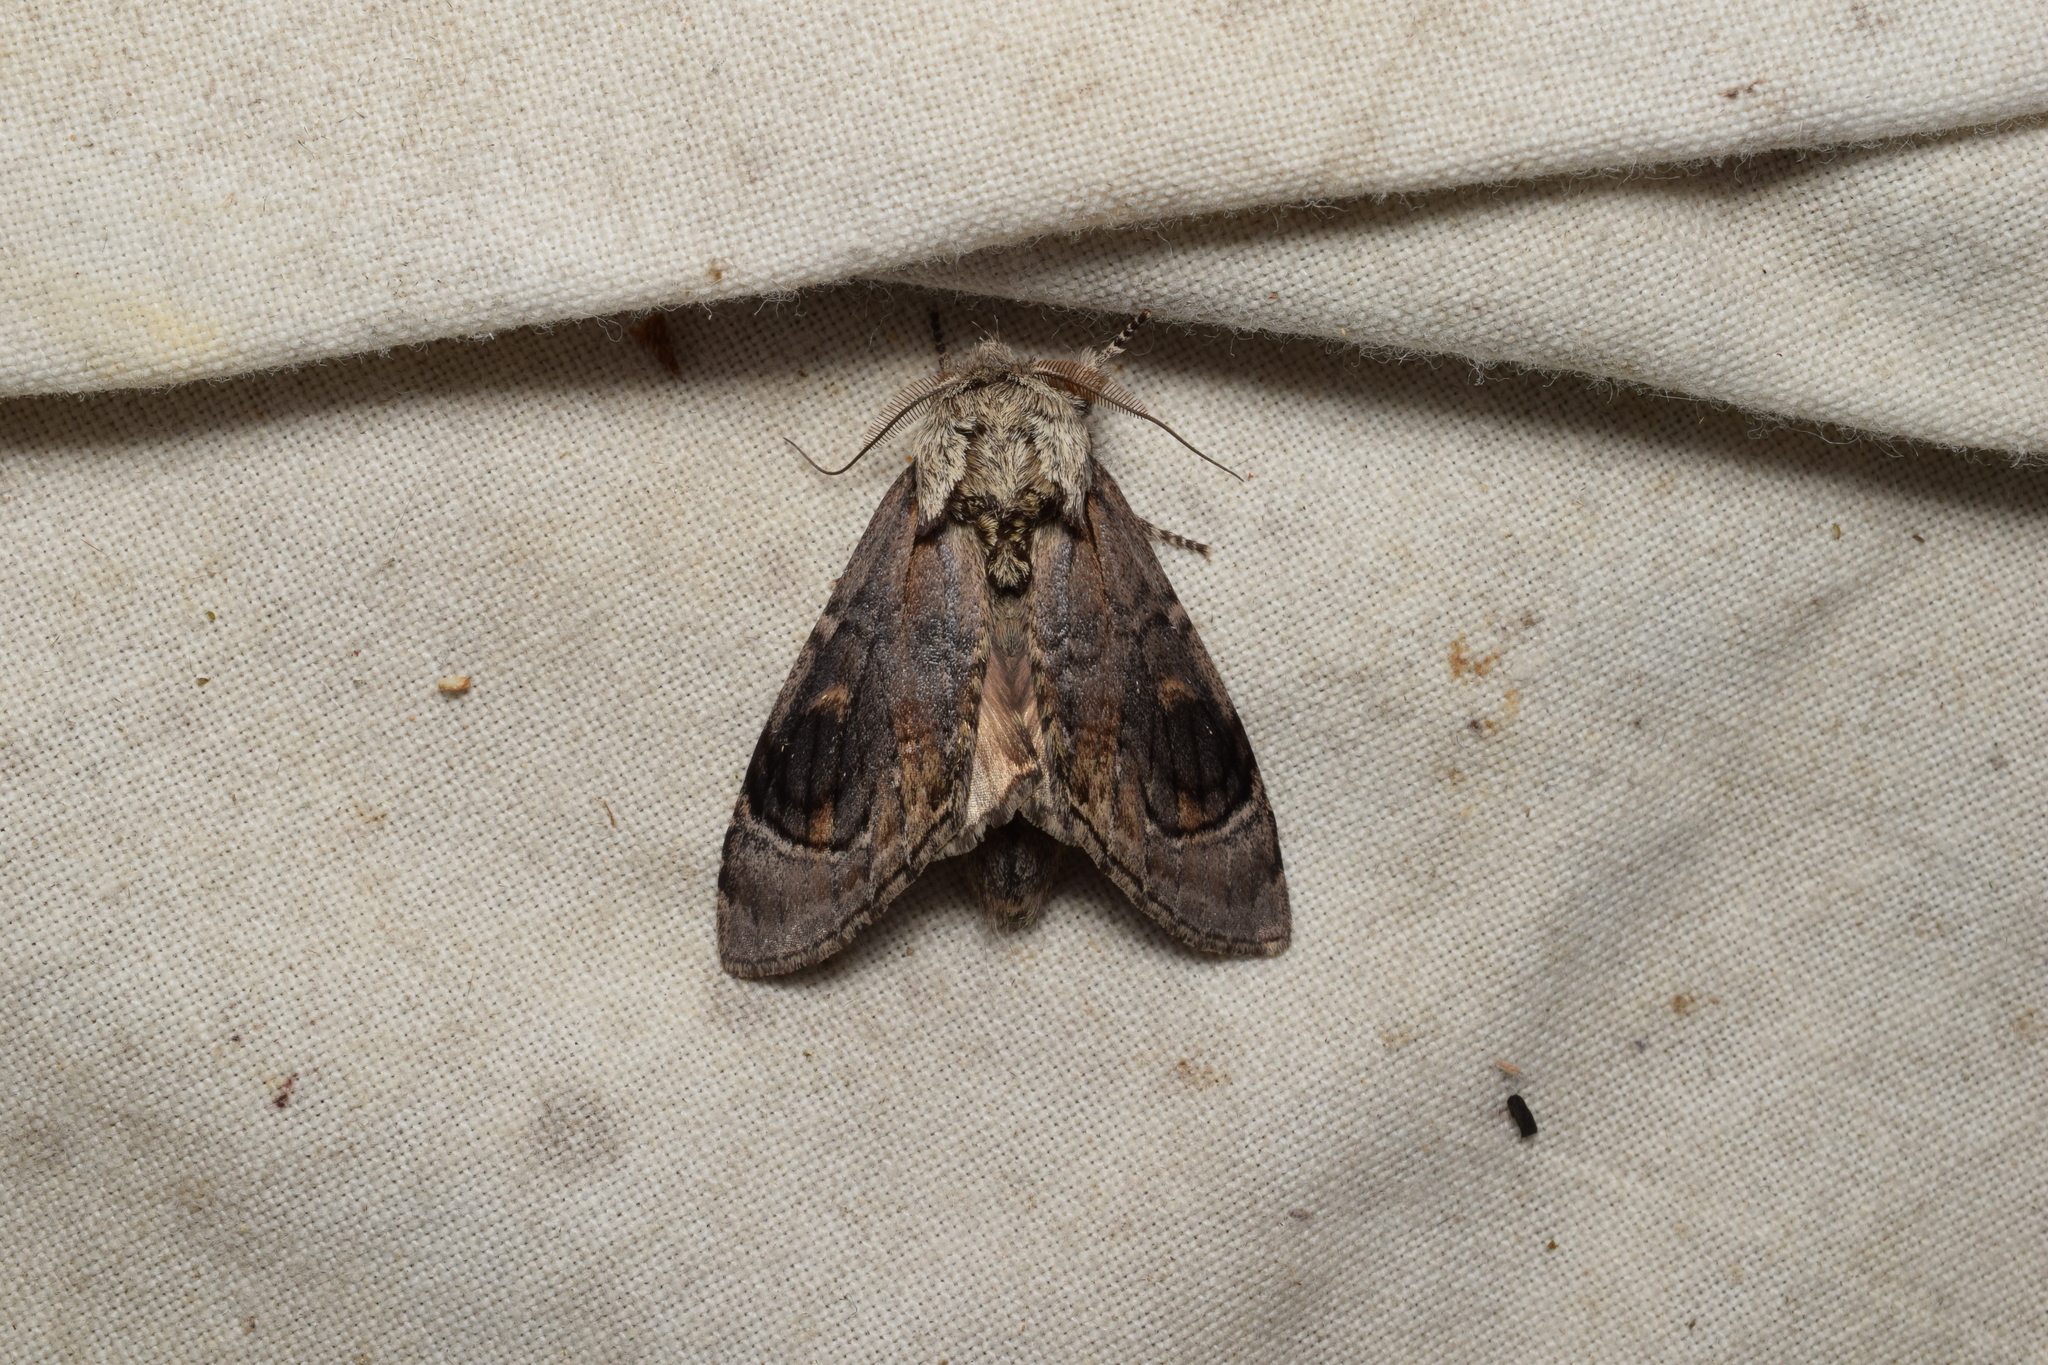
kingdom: Animalia
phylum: Arthropoda
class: Insecta
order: Lepidoptera
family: Notodontidae
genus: Fentonia
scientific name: Fentonia ocypete
